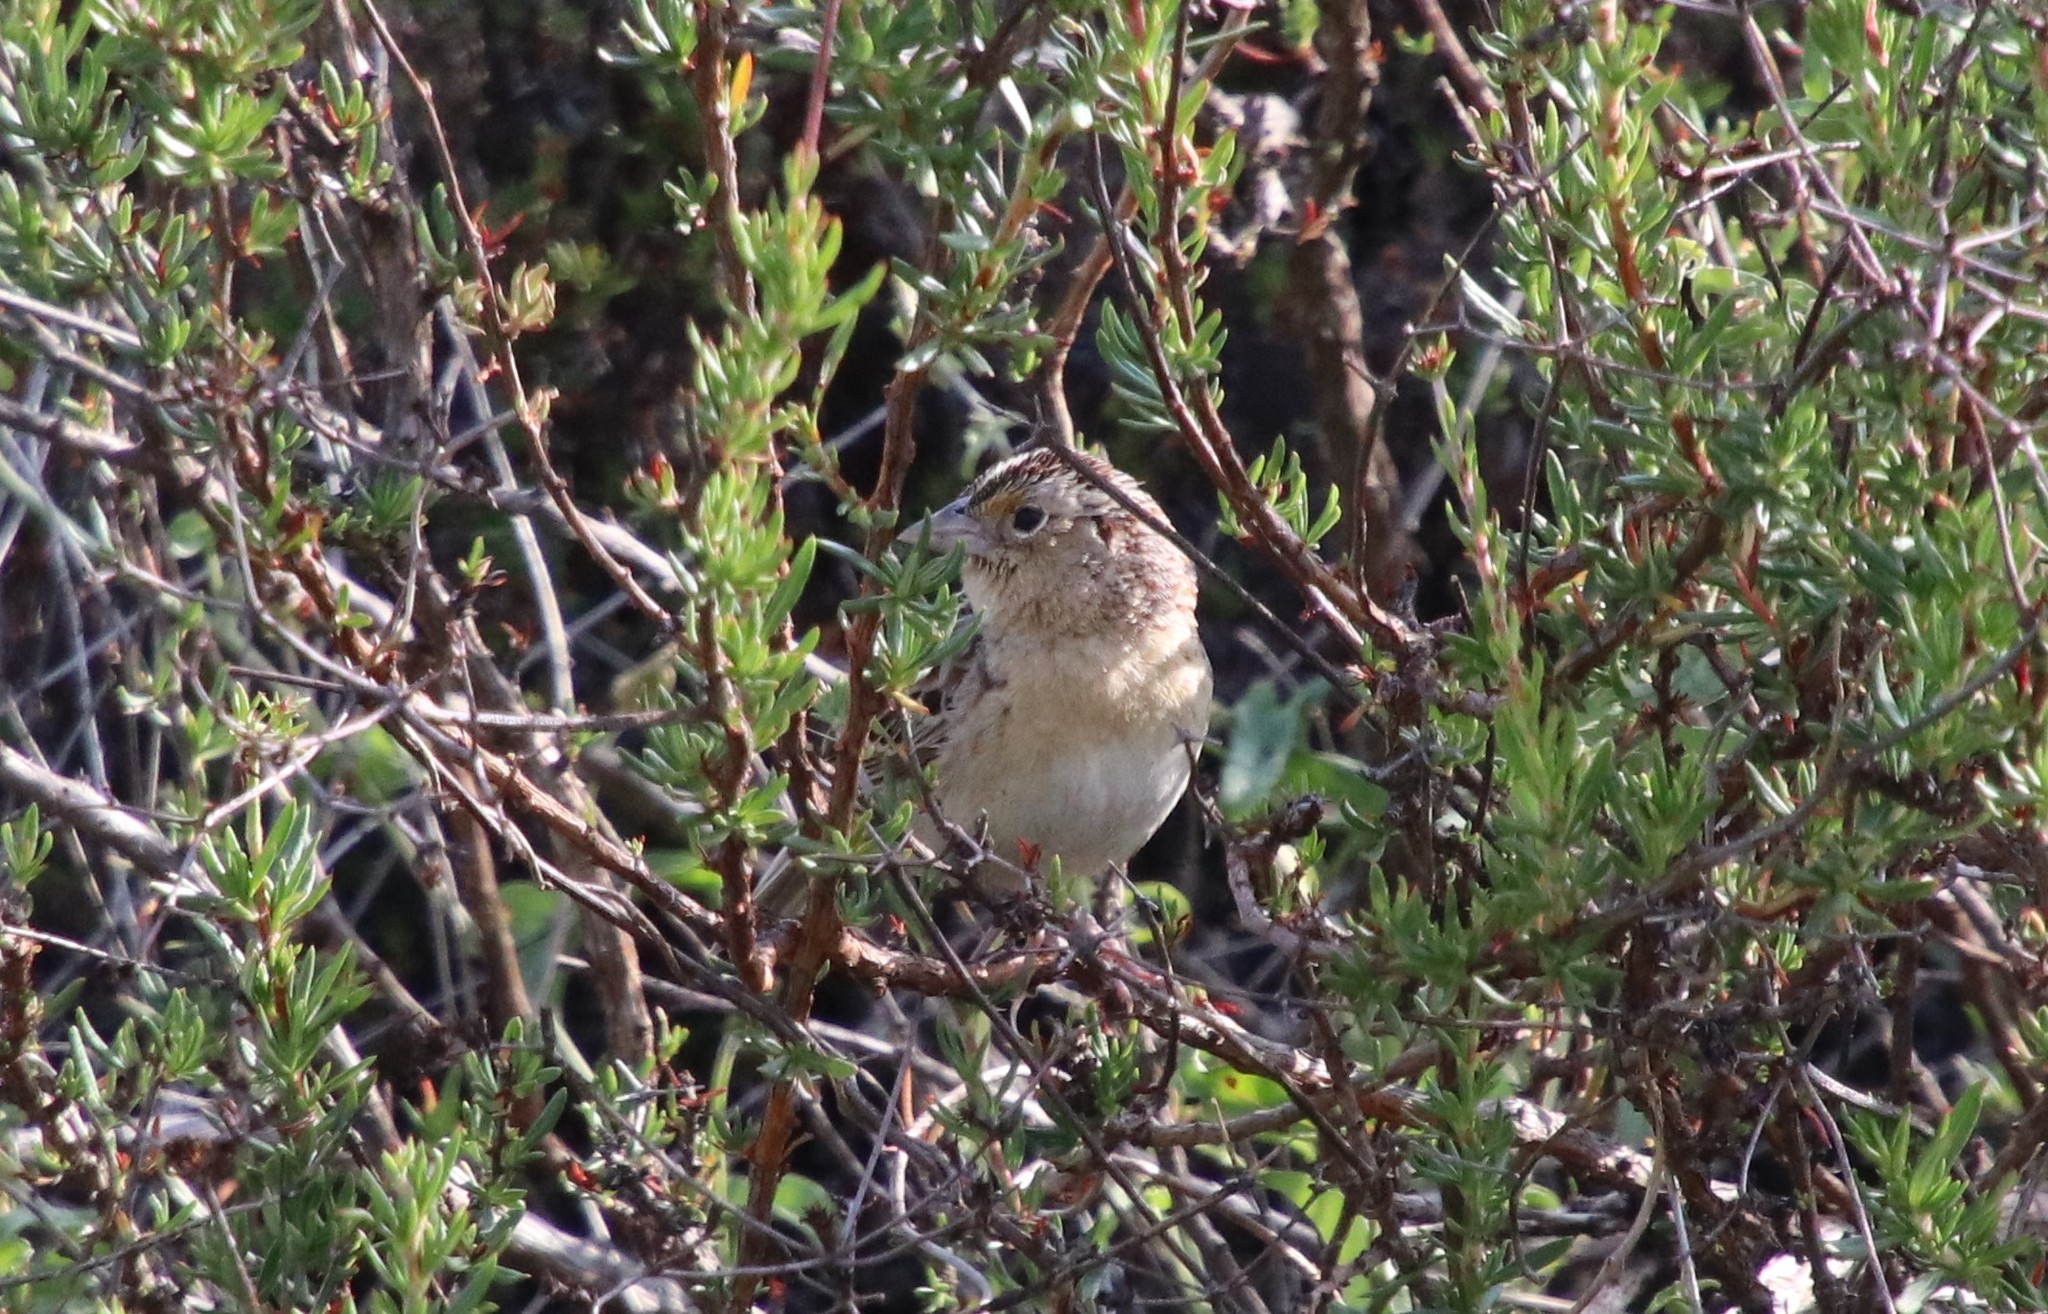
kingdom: Animalia
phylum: Chordata
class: Aves
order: Passeriformes
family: Passerellidae
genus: Ammodramus
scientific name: Ammodramus savannarum
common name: Grasshopper sparrow
